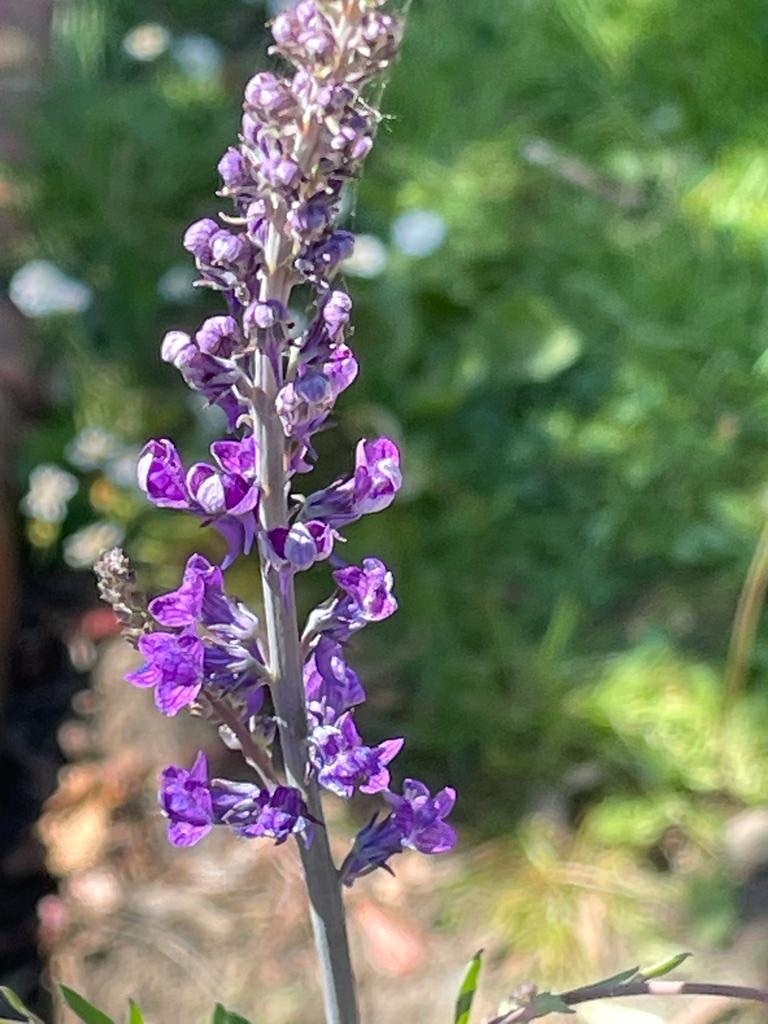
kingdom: Plantae
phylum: Tracheophyta
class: Magnoliopsida
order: Lamiales
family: Plantaginaceae
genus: Linaria
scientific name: Linaria purpurea
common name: Purple toadflax
